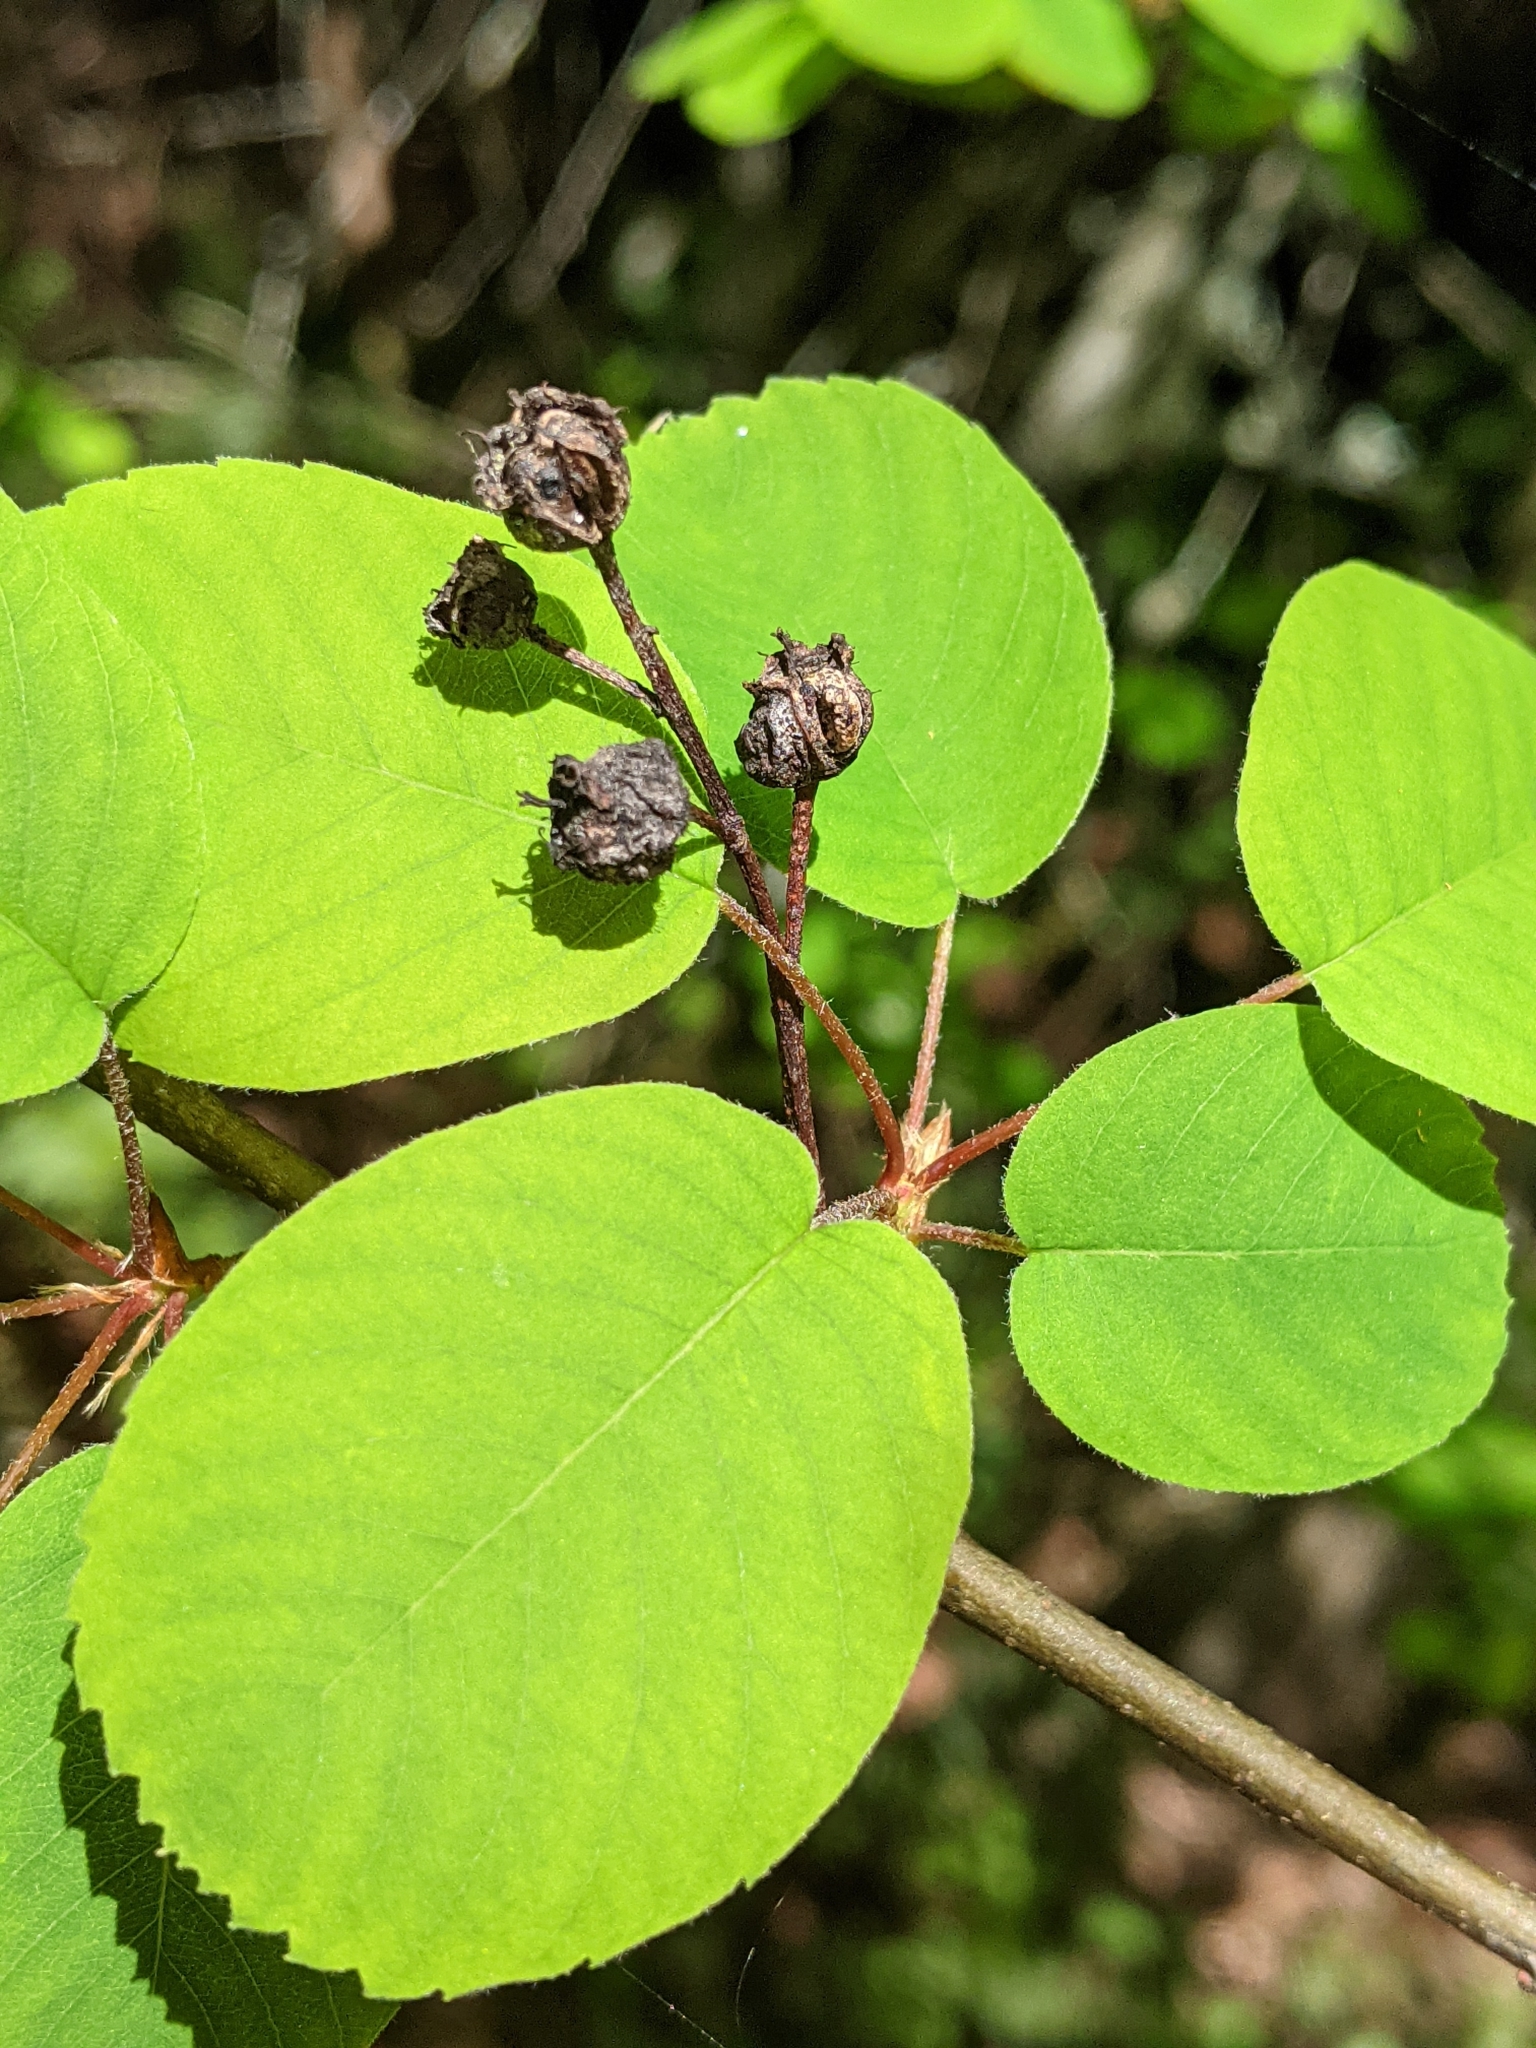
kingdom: Plantae
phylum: Tracheophyta
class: Magnoliopsida
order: Rosales
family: Rosaceae
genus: Amelanchier
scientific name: Amelanchier alnifolia
